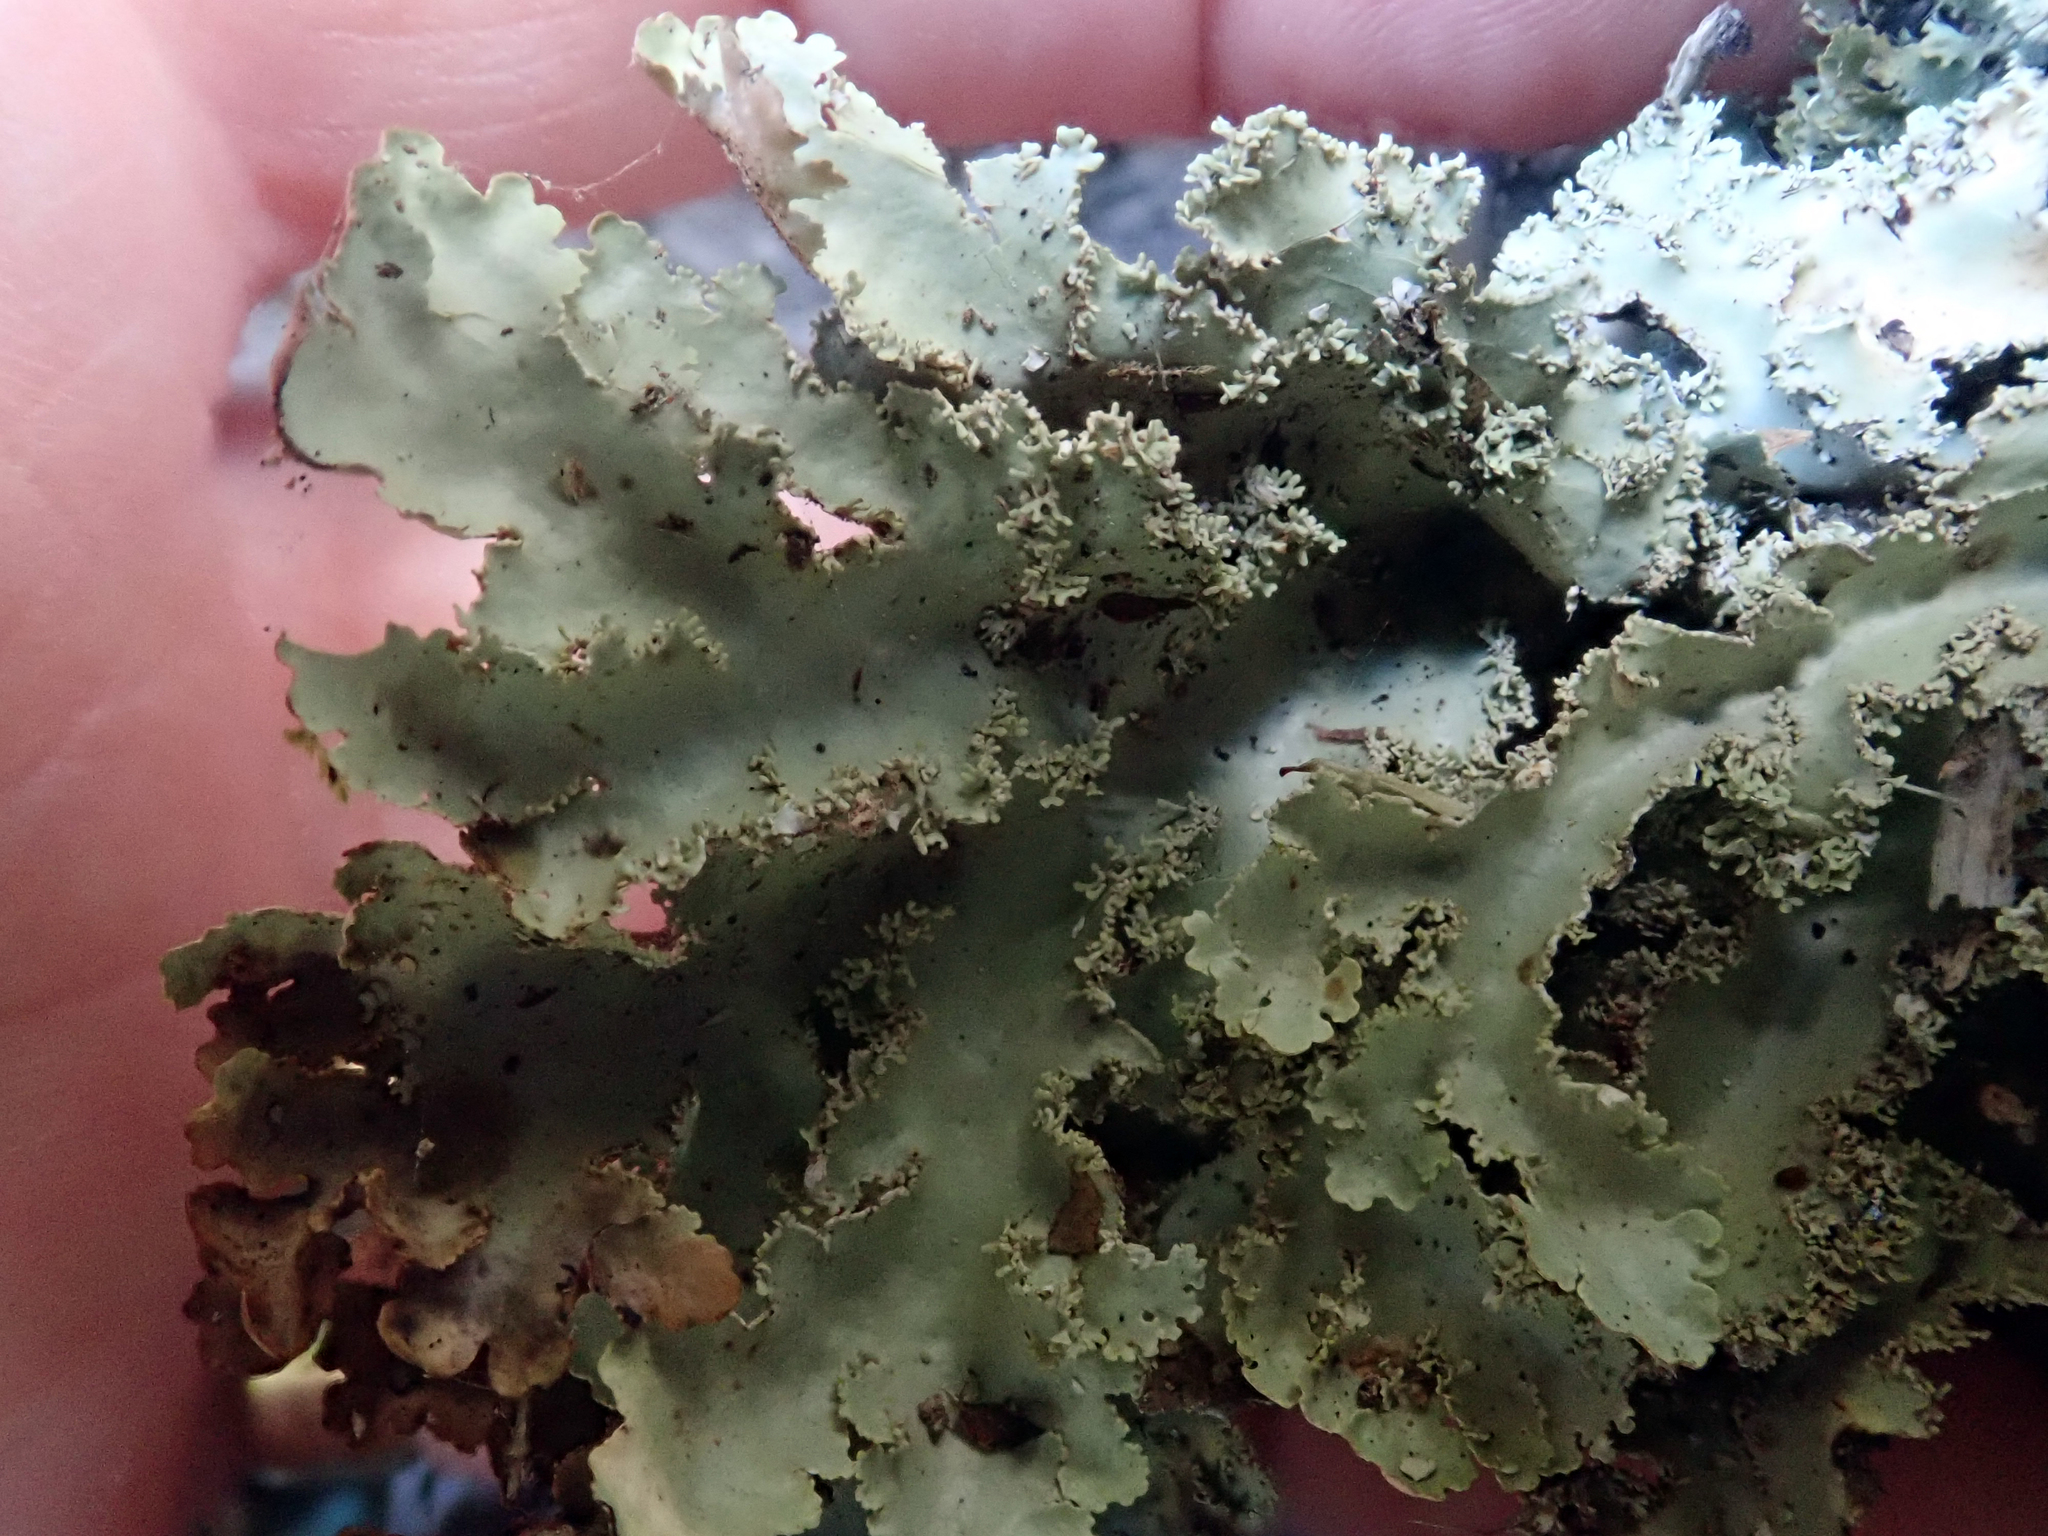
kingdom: Fungi
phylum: Ascomycota
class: Lecanoromycetes
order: Peltigerales
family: Lobariaceae
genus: Pseudocyphellaria
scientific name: Pseudocyphellaria glabra
